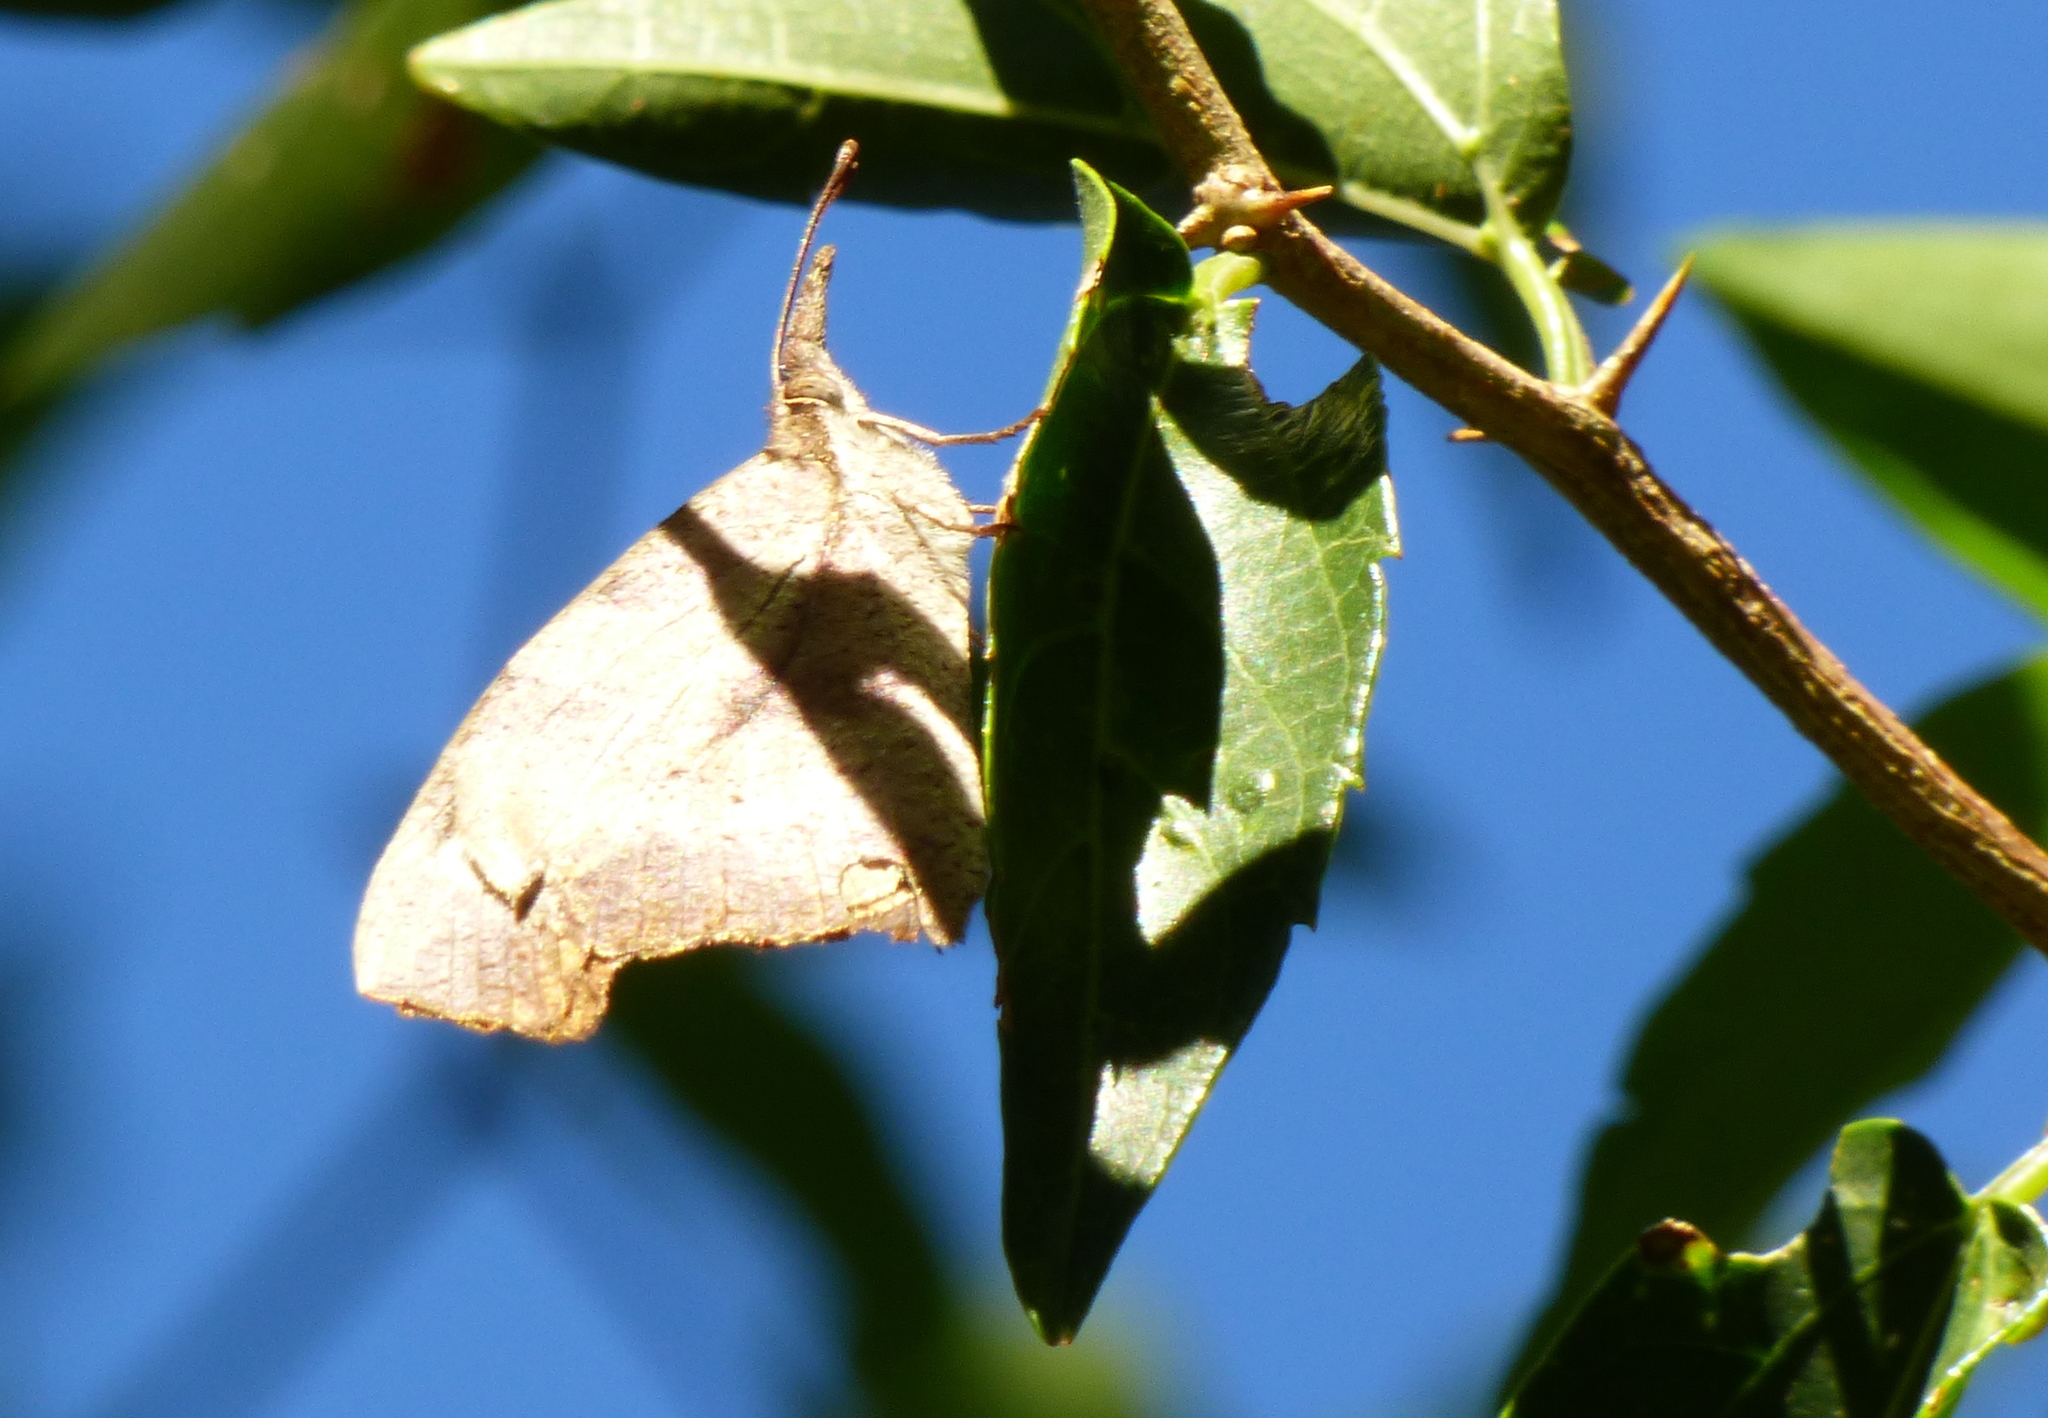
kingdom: Animalia
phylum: Arthropoda
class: Insecta
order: Lepidoptera
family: Nymphalidae
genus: Libytheana
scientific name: Libytheana carinenta
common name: American snout
